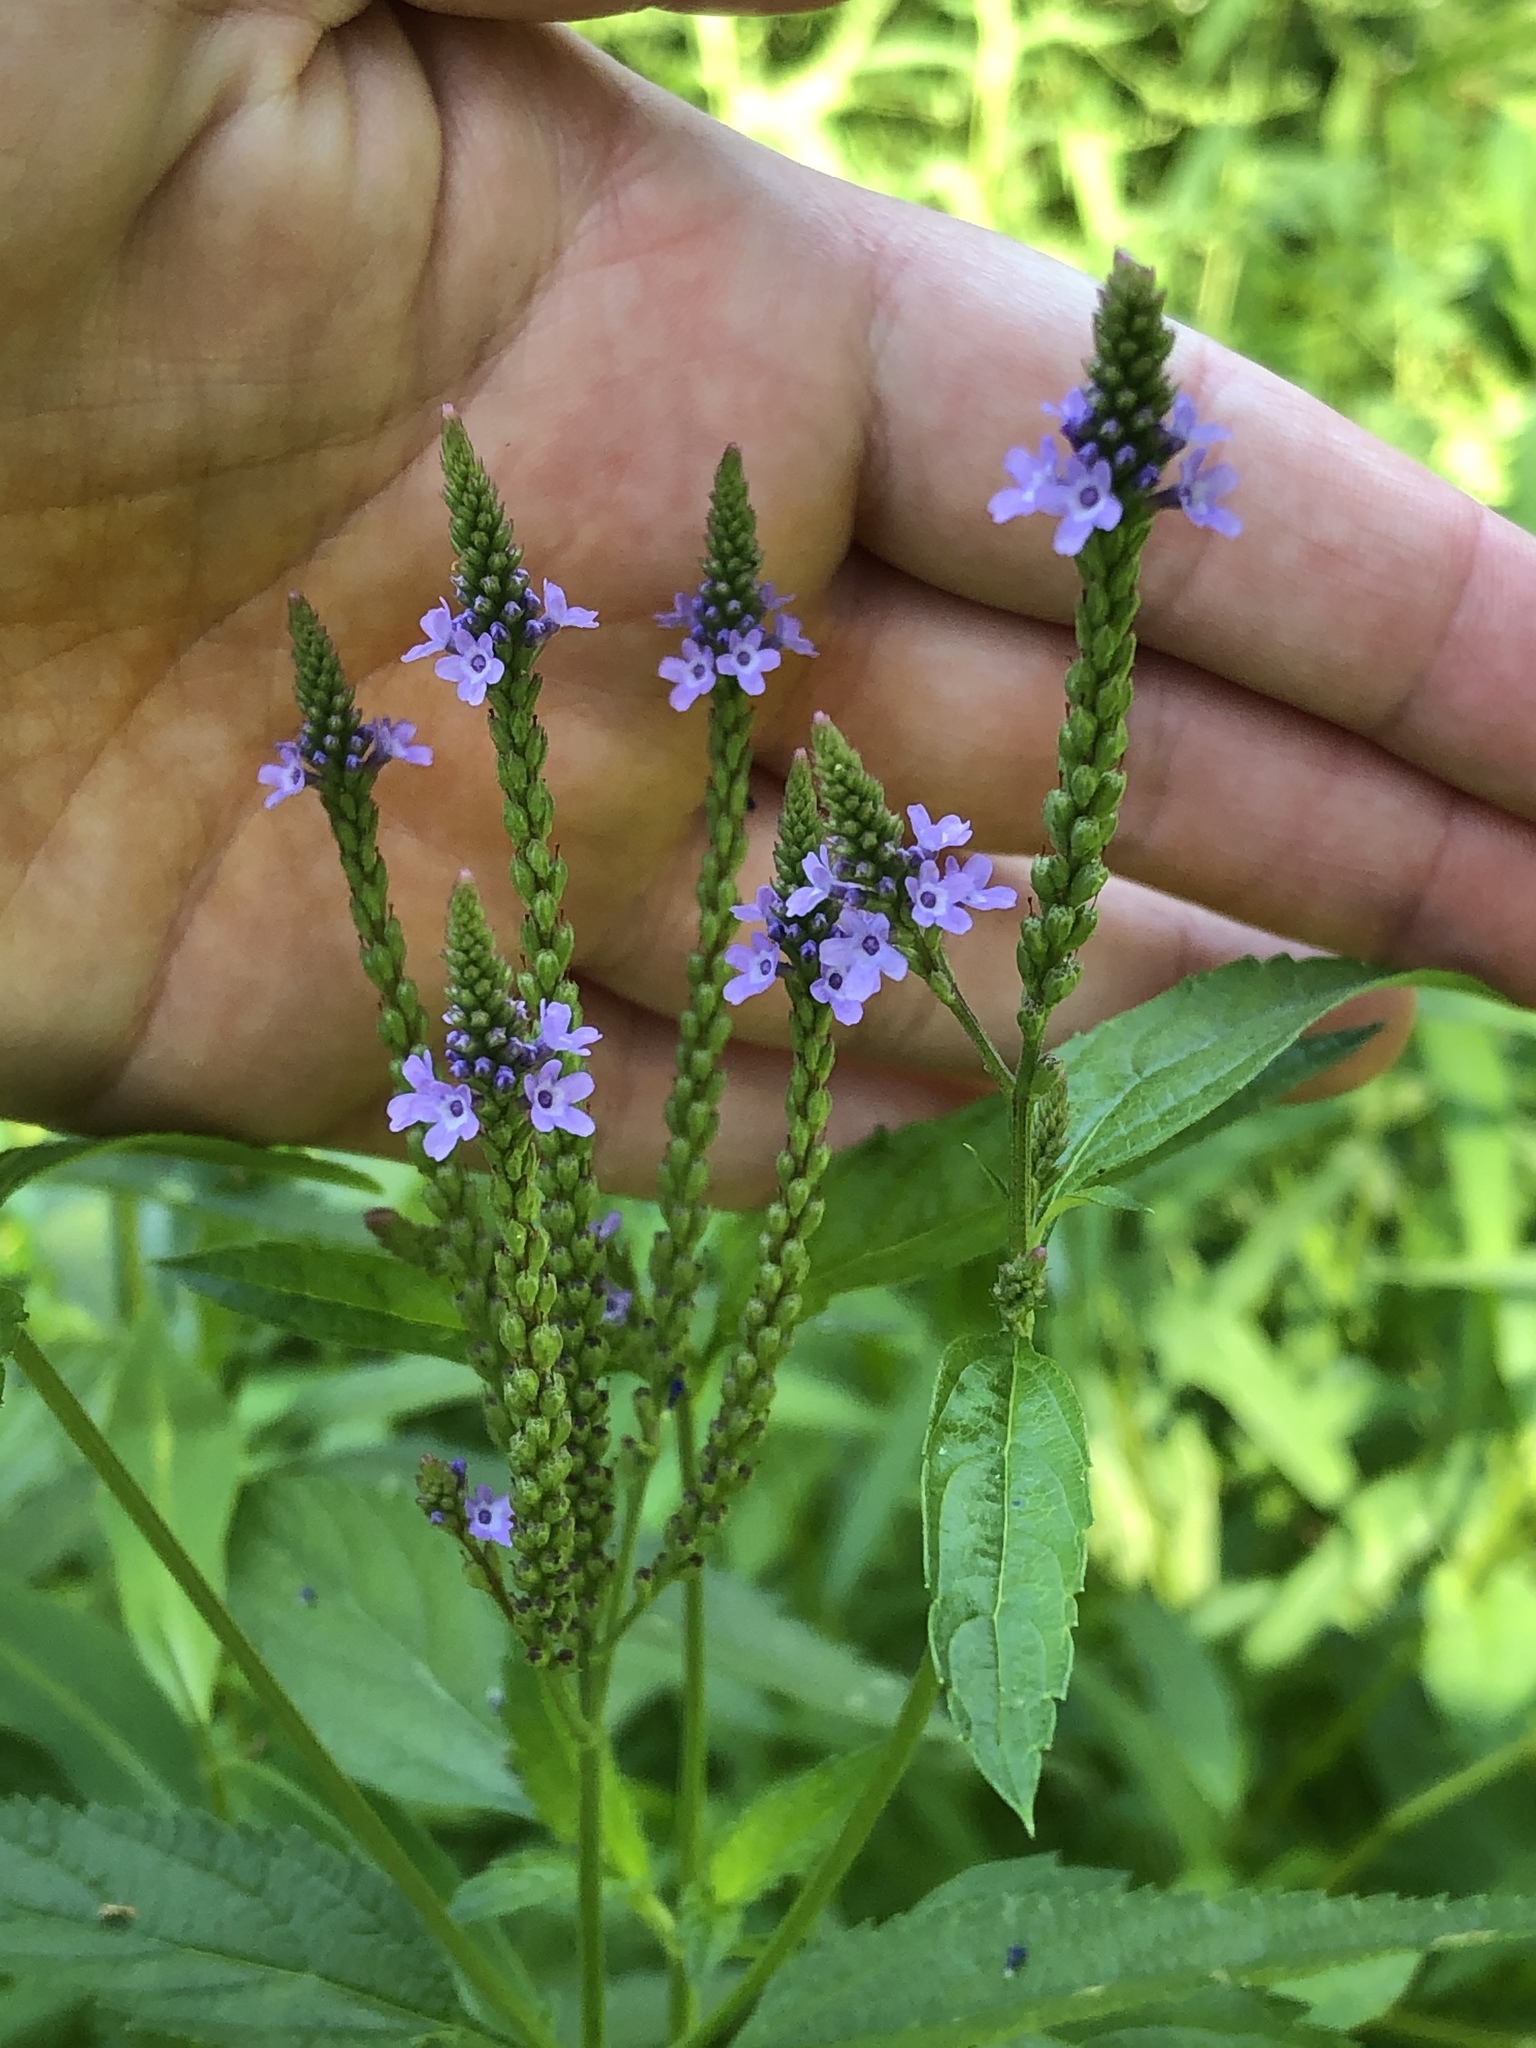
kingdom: Plantae
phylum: Tracheophyta
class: Magnoliopsida
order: Lamiales
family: Verbenaceae
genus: Verbena
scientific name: Verbena hastata
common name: American blue vervain
